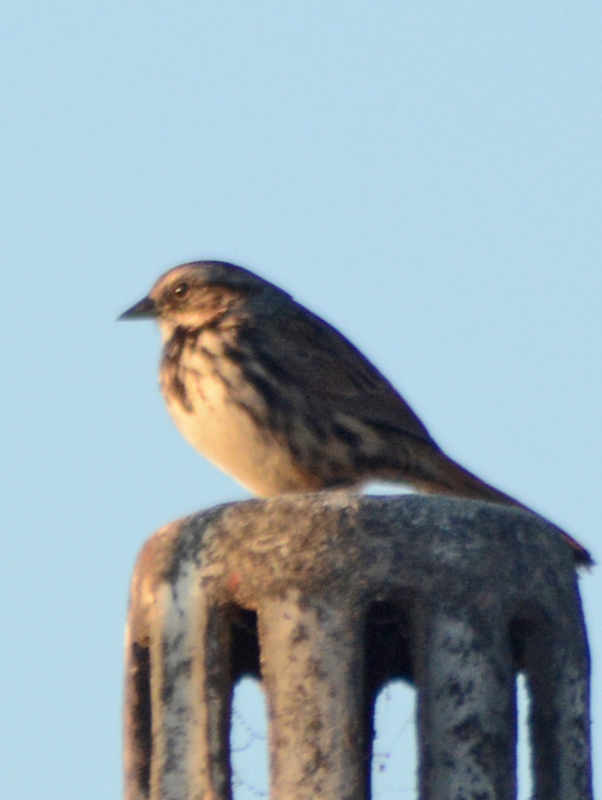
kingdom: Animalia
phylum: Chordata
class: Aves
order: Passeriformes
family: Passerellidae
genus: Melospiza
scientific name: Melospiza melodia
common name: Song sparrow
